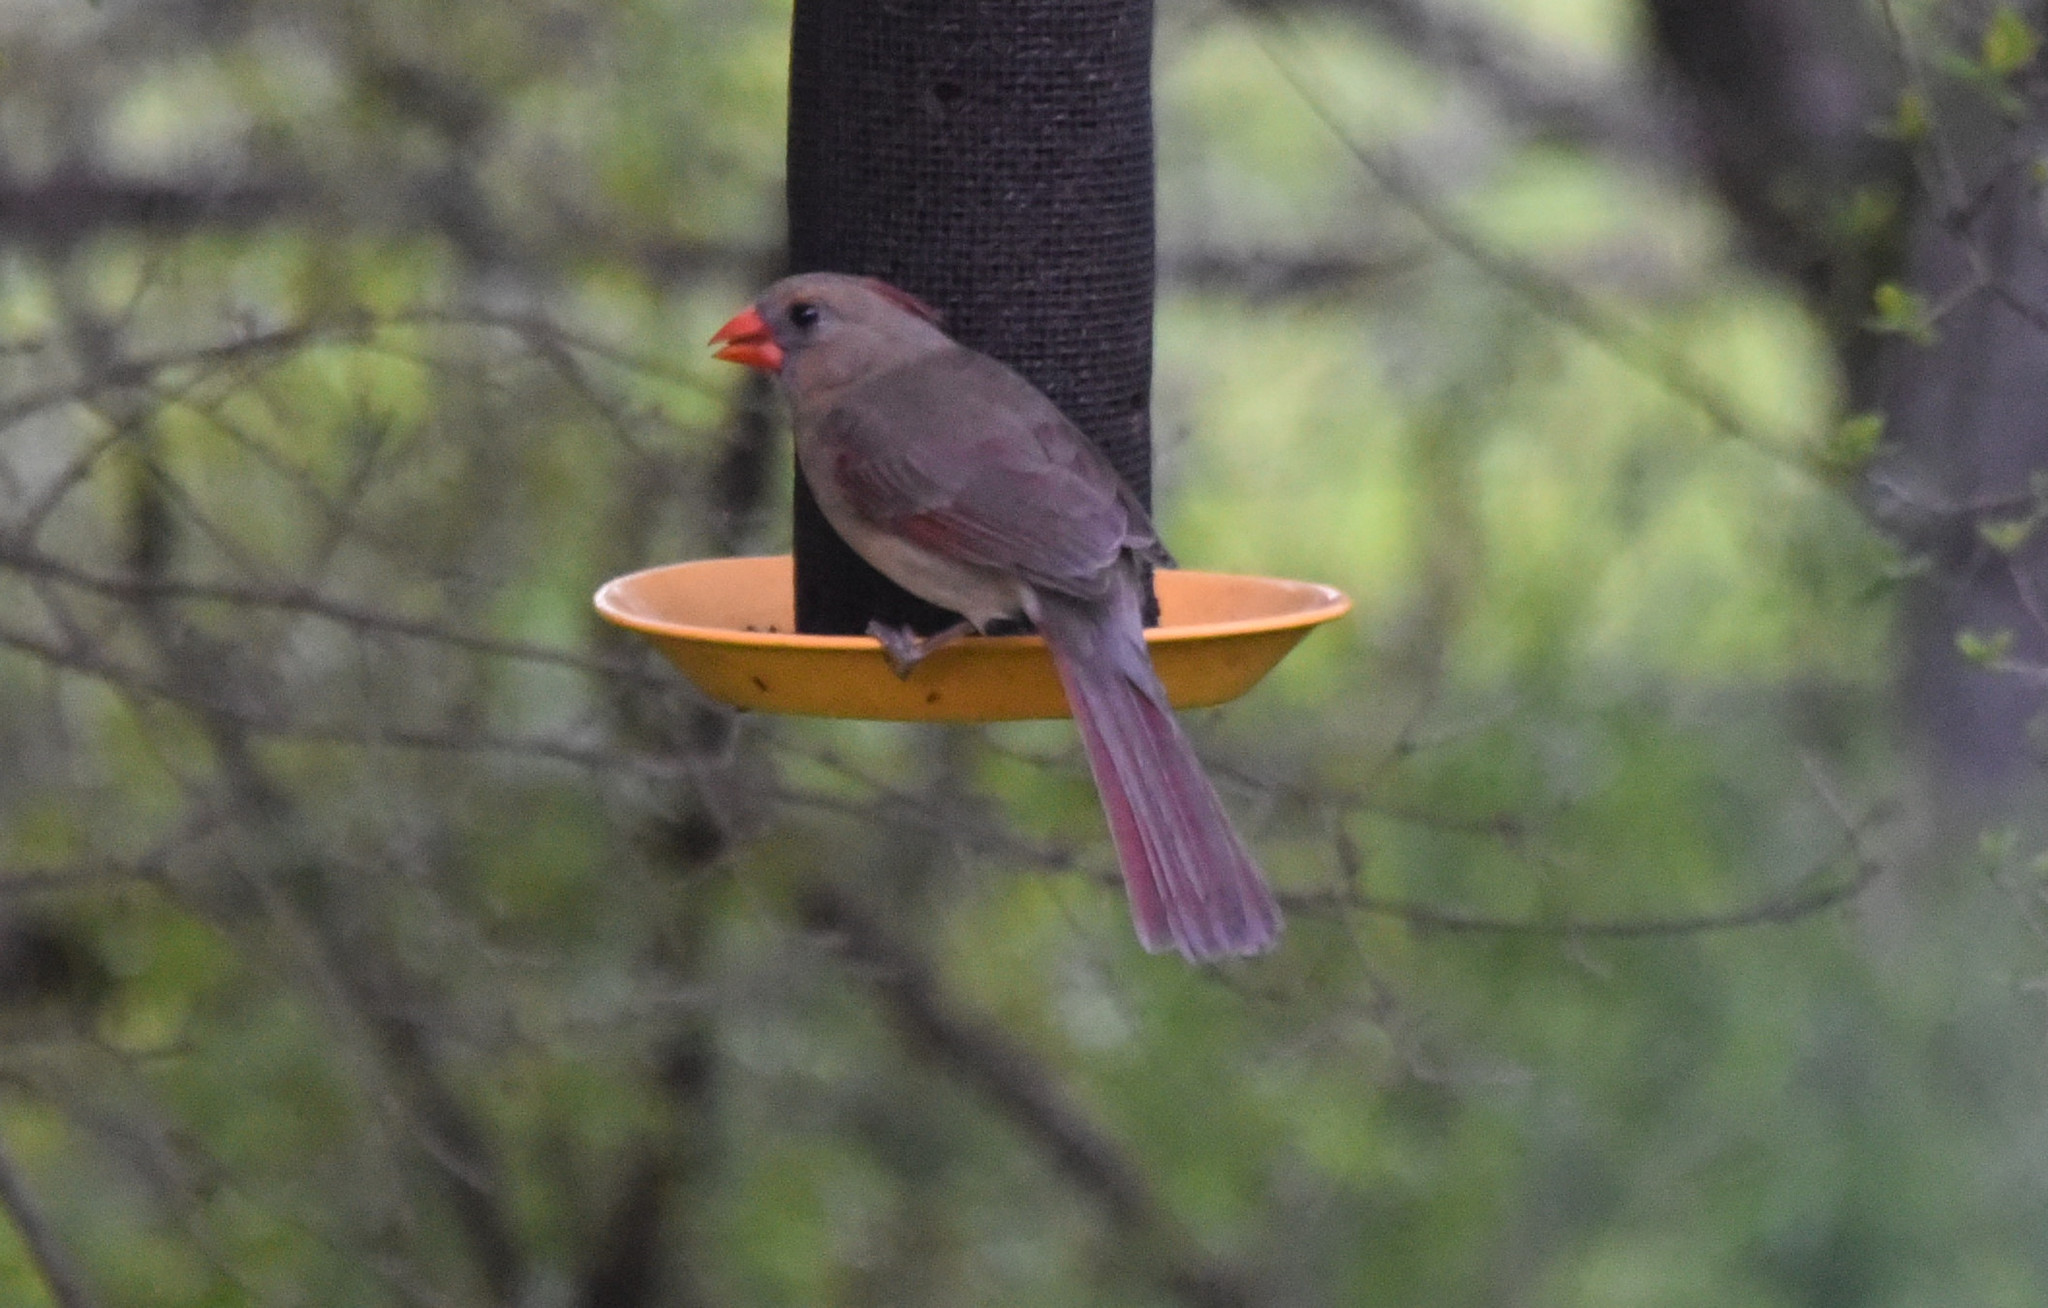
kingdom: Animalia
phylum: Chordata
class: Aves
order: Passeriformes
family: Cardinalidae
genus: Cardinalis
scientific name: Cardinalis cardinalis
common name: Northern cardinal
